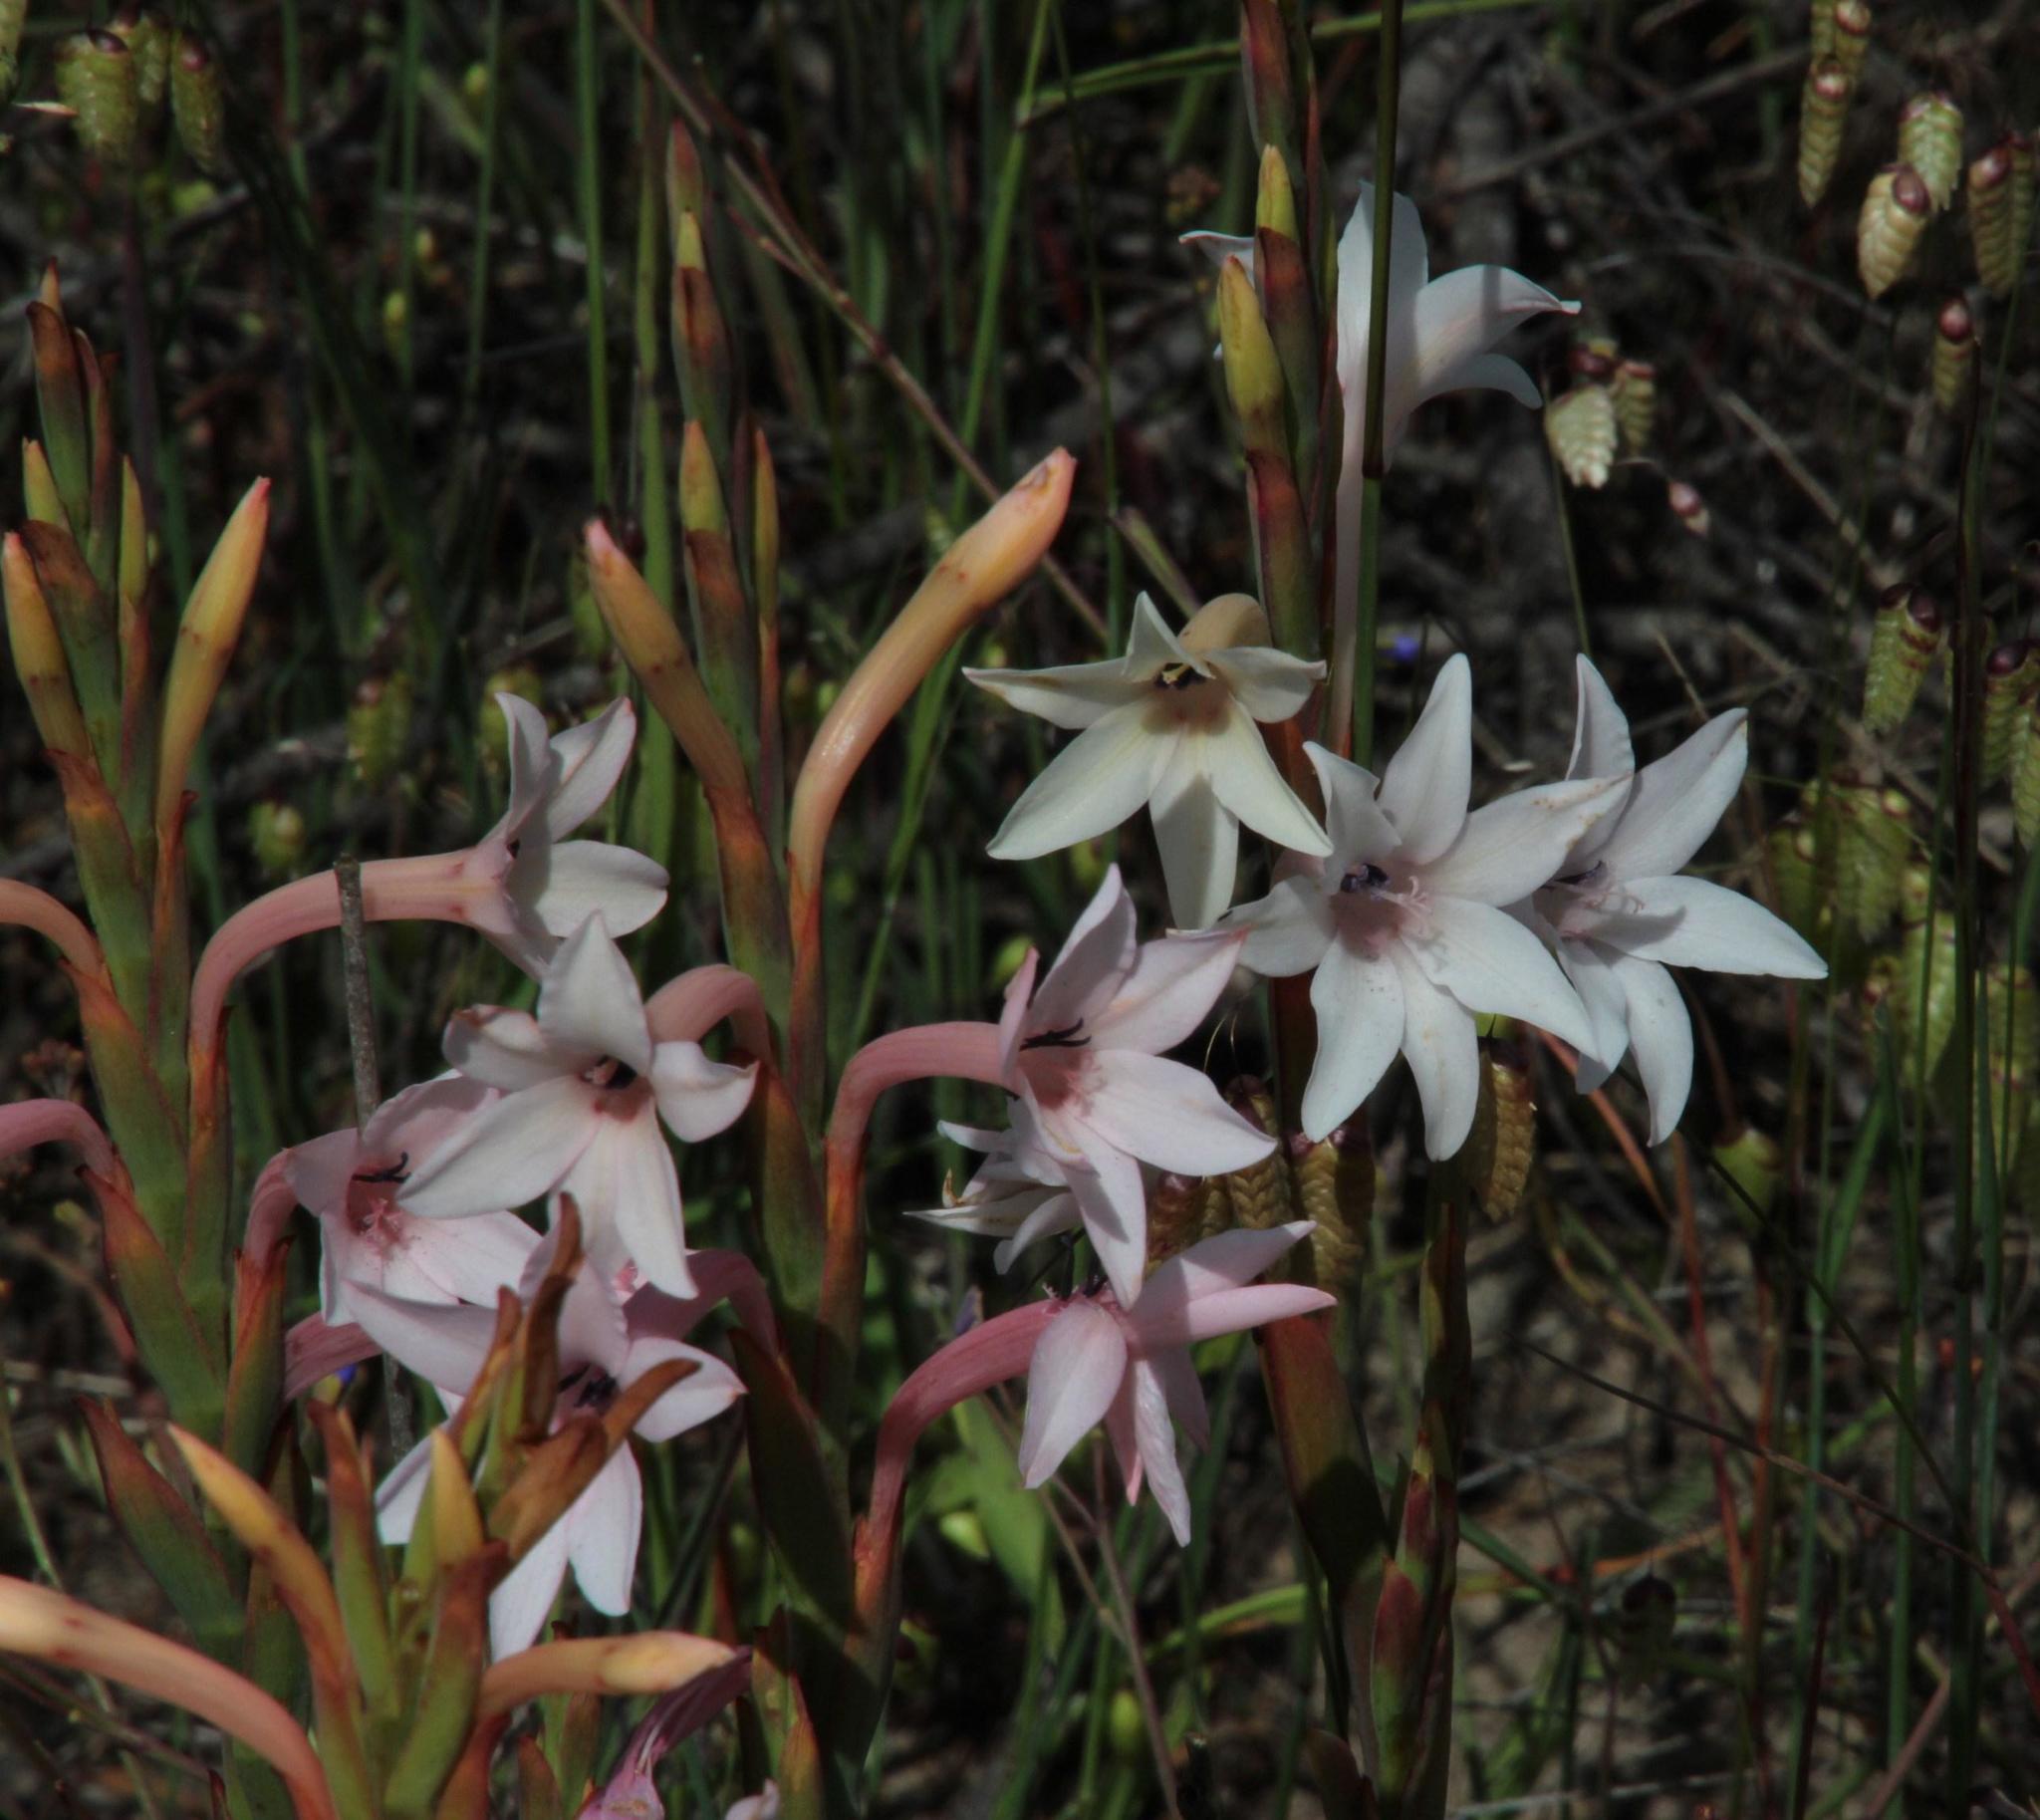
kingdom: Plantae
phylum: Tracheophyta
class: Liliopsida
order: Asparagales
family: Iridaceae
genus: Watsonia
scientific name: Watsonia humilis
